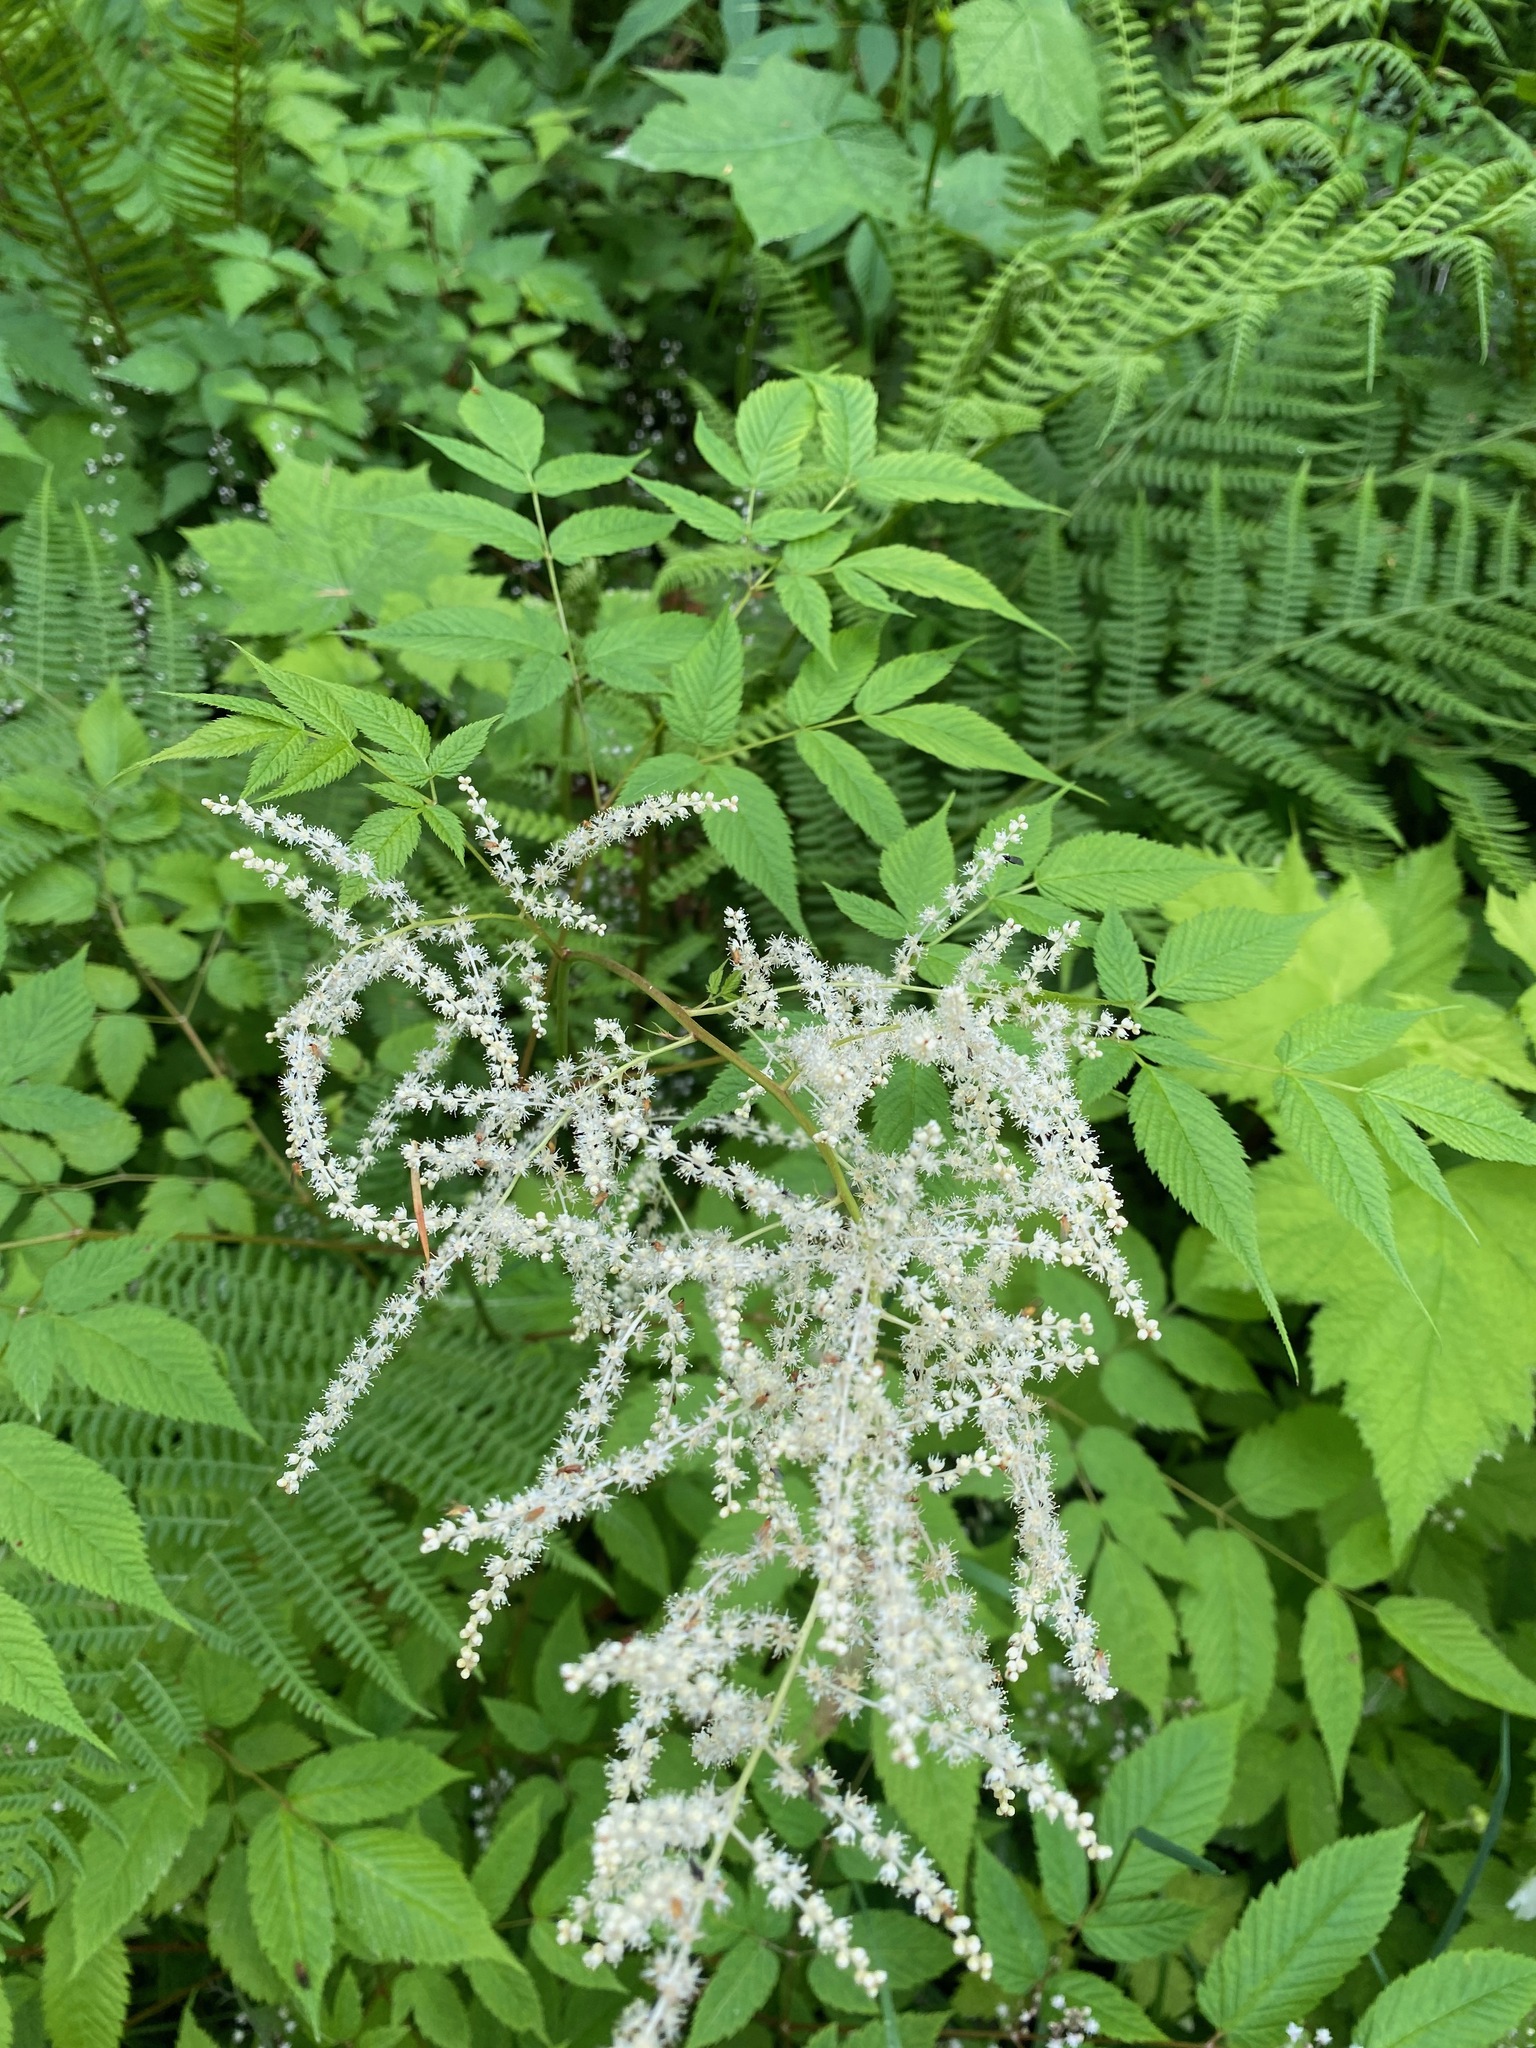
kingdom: Plantae
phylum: Tracheophyta
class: Magnoliopsida
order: Rosales
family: Rosaceae
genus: Aruncus
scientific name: Aruncus dioicus
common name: Buck's-beard
